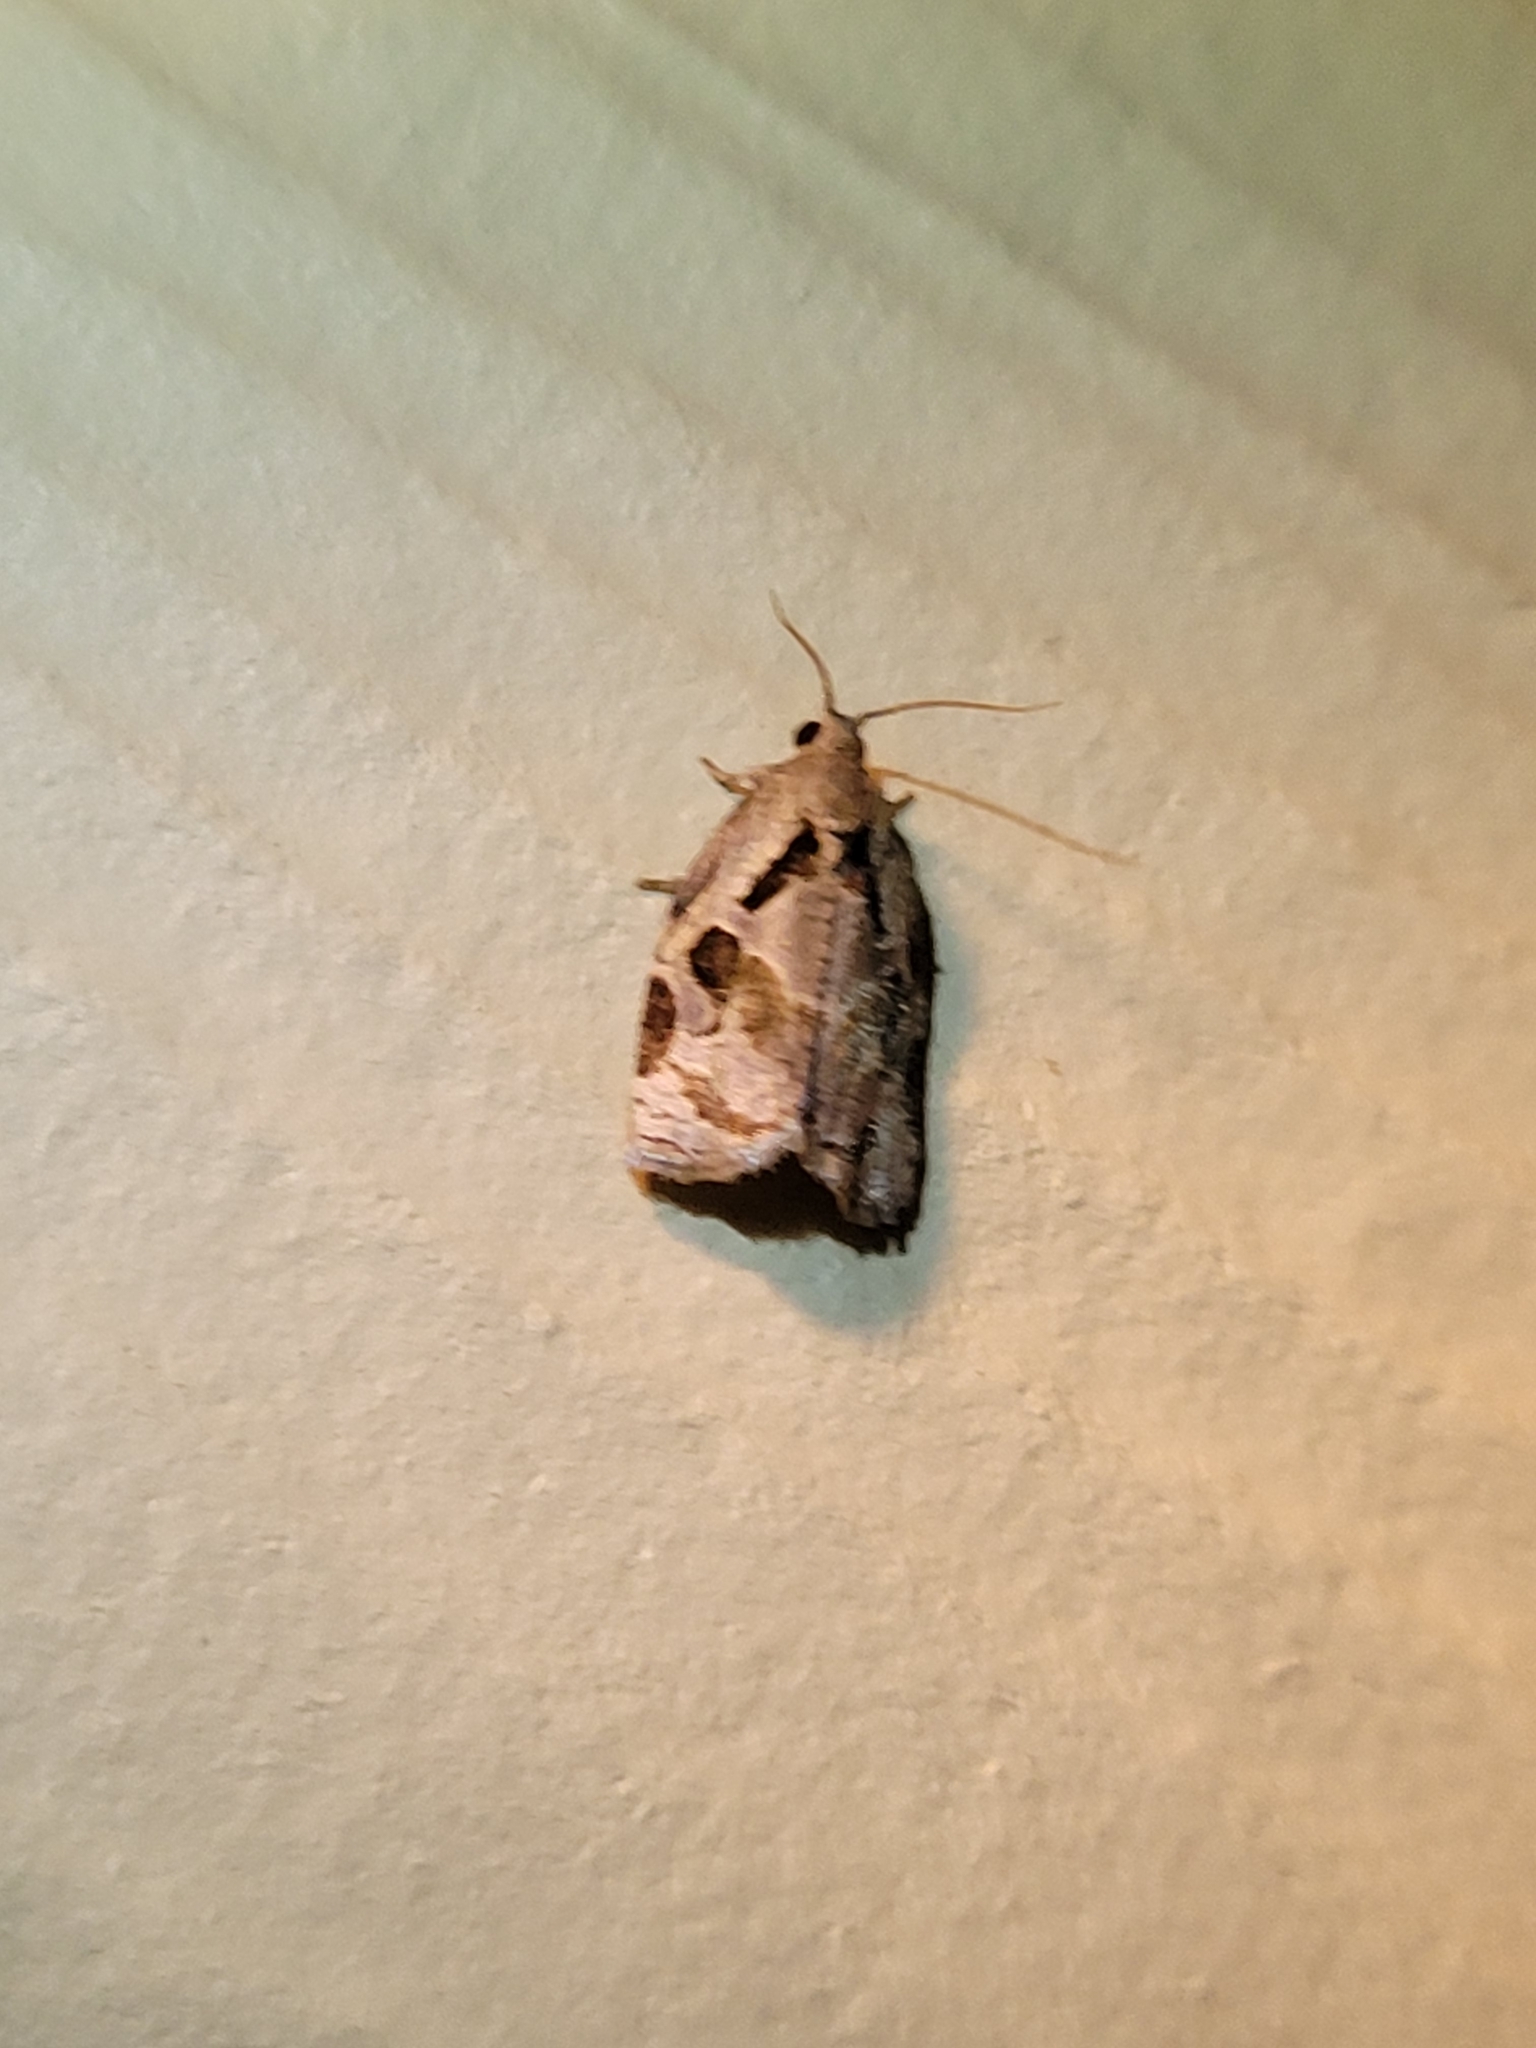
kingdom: Animalia
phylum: Arthropoda
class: Insecta
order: Lepidoptera
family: Tortricidae
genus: Archips
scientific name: Archips grisea
